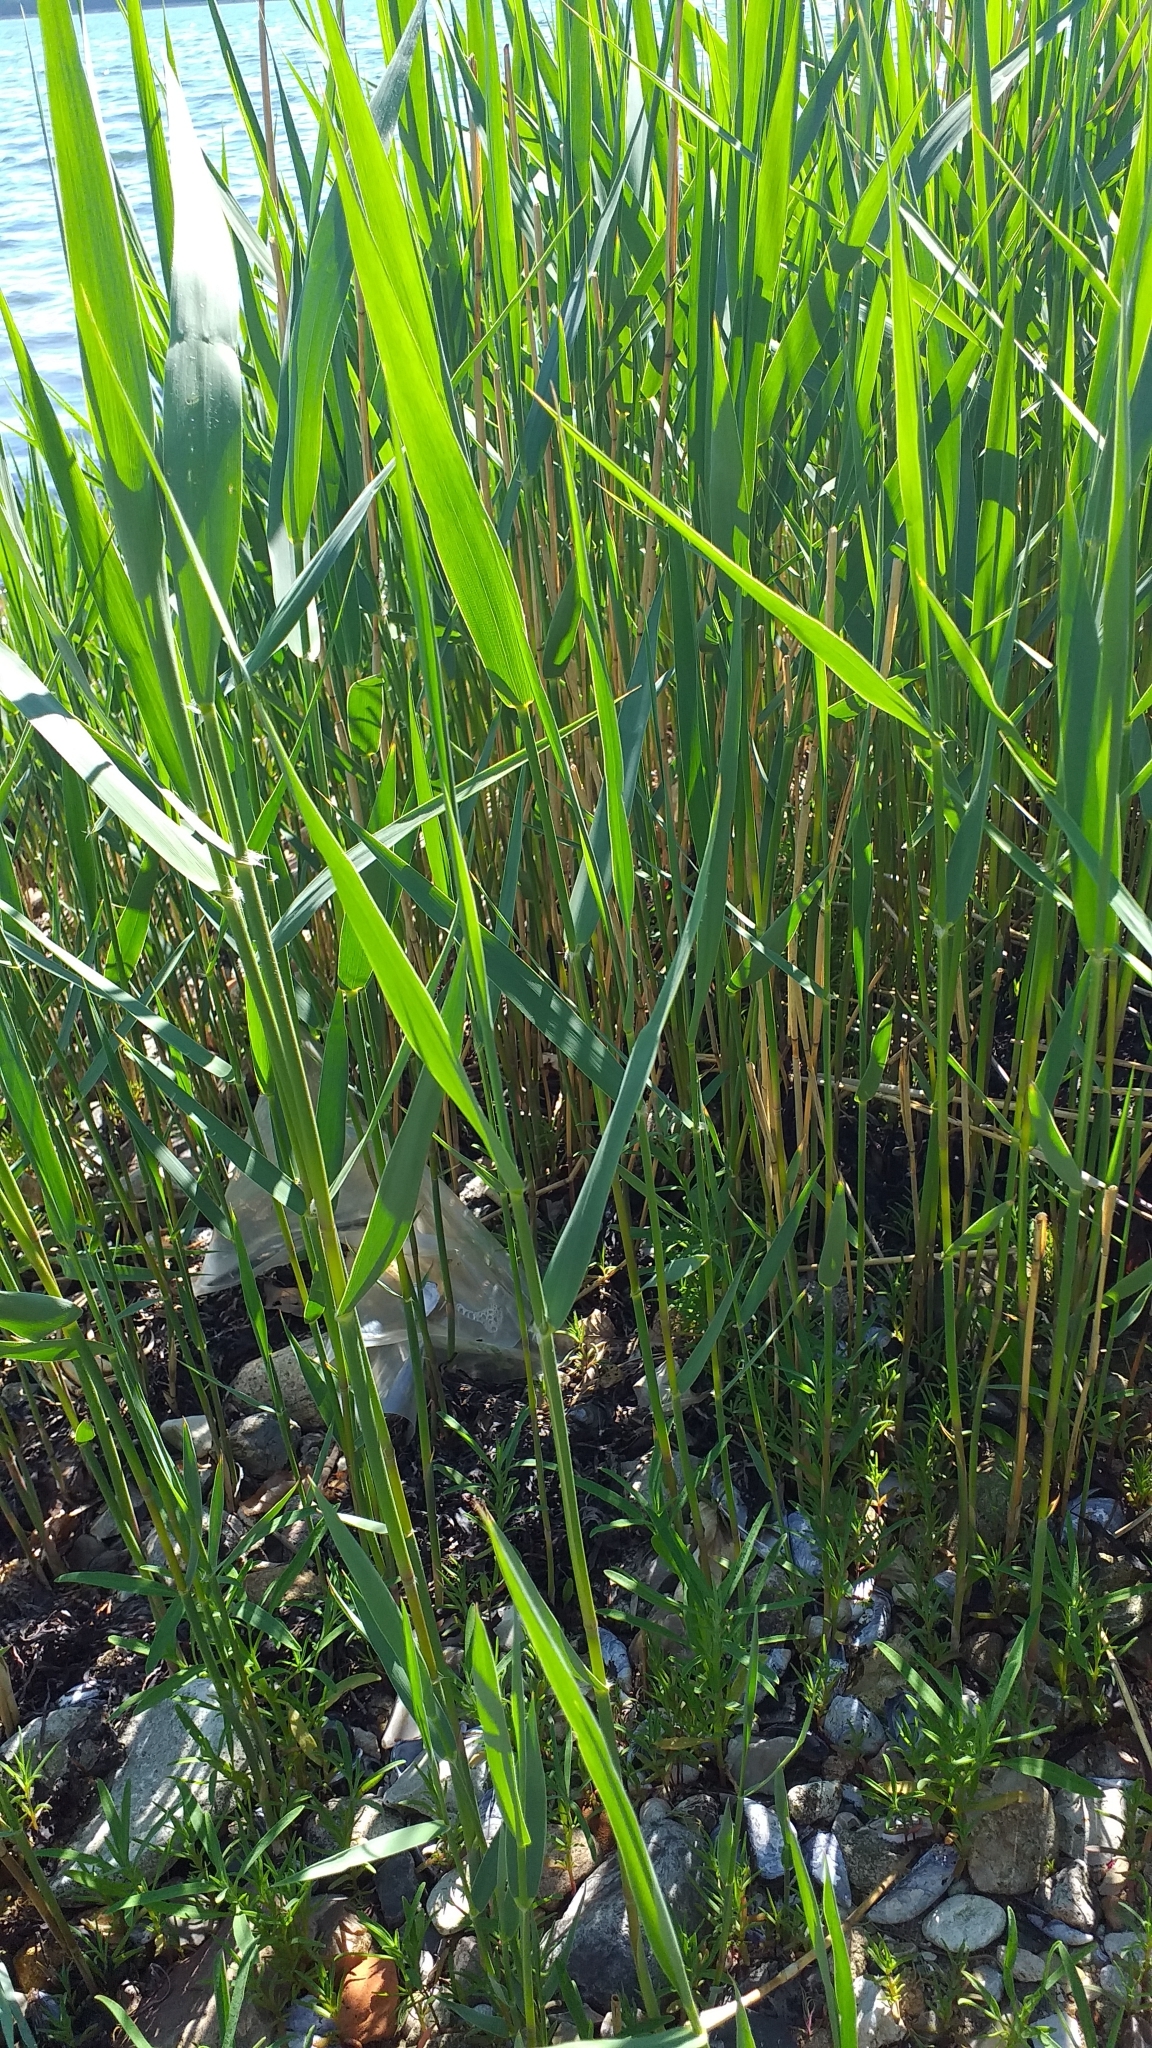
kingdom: Plantae
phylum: Tracheophyta
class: Liliopsida
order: Poales
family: Poaceae
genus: Phragmites
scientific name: Phragmites australis
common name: Common reed
